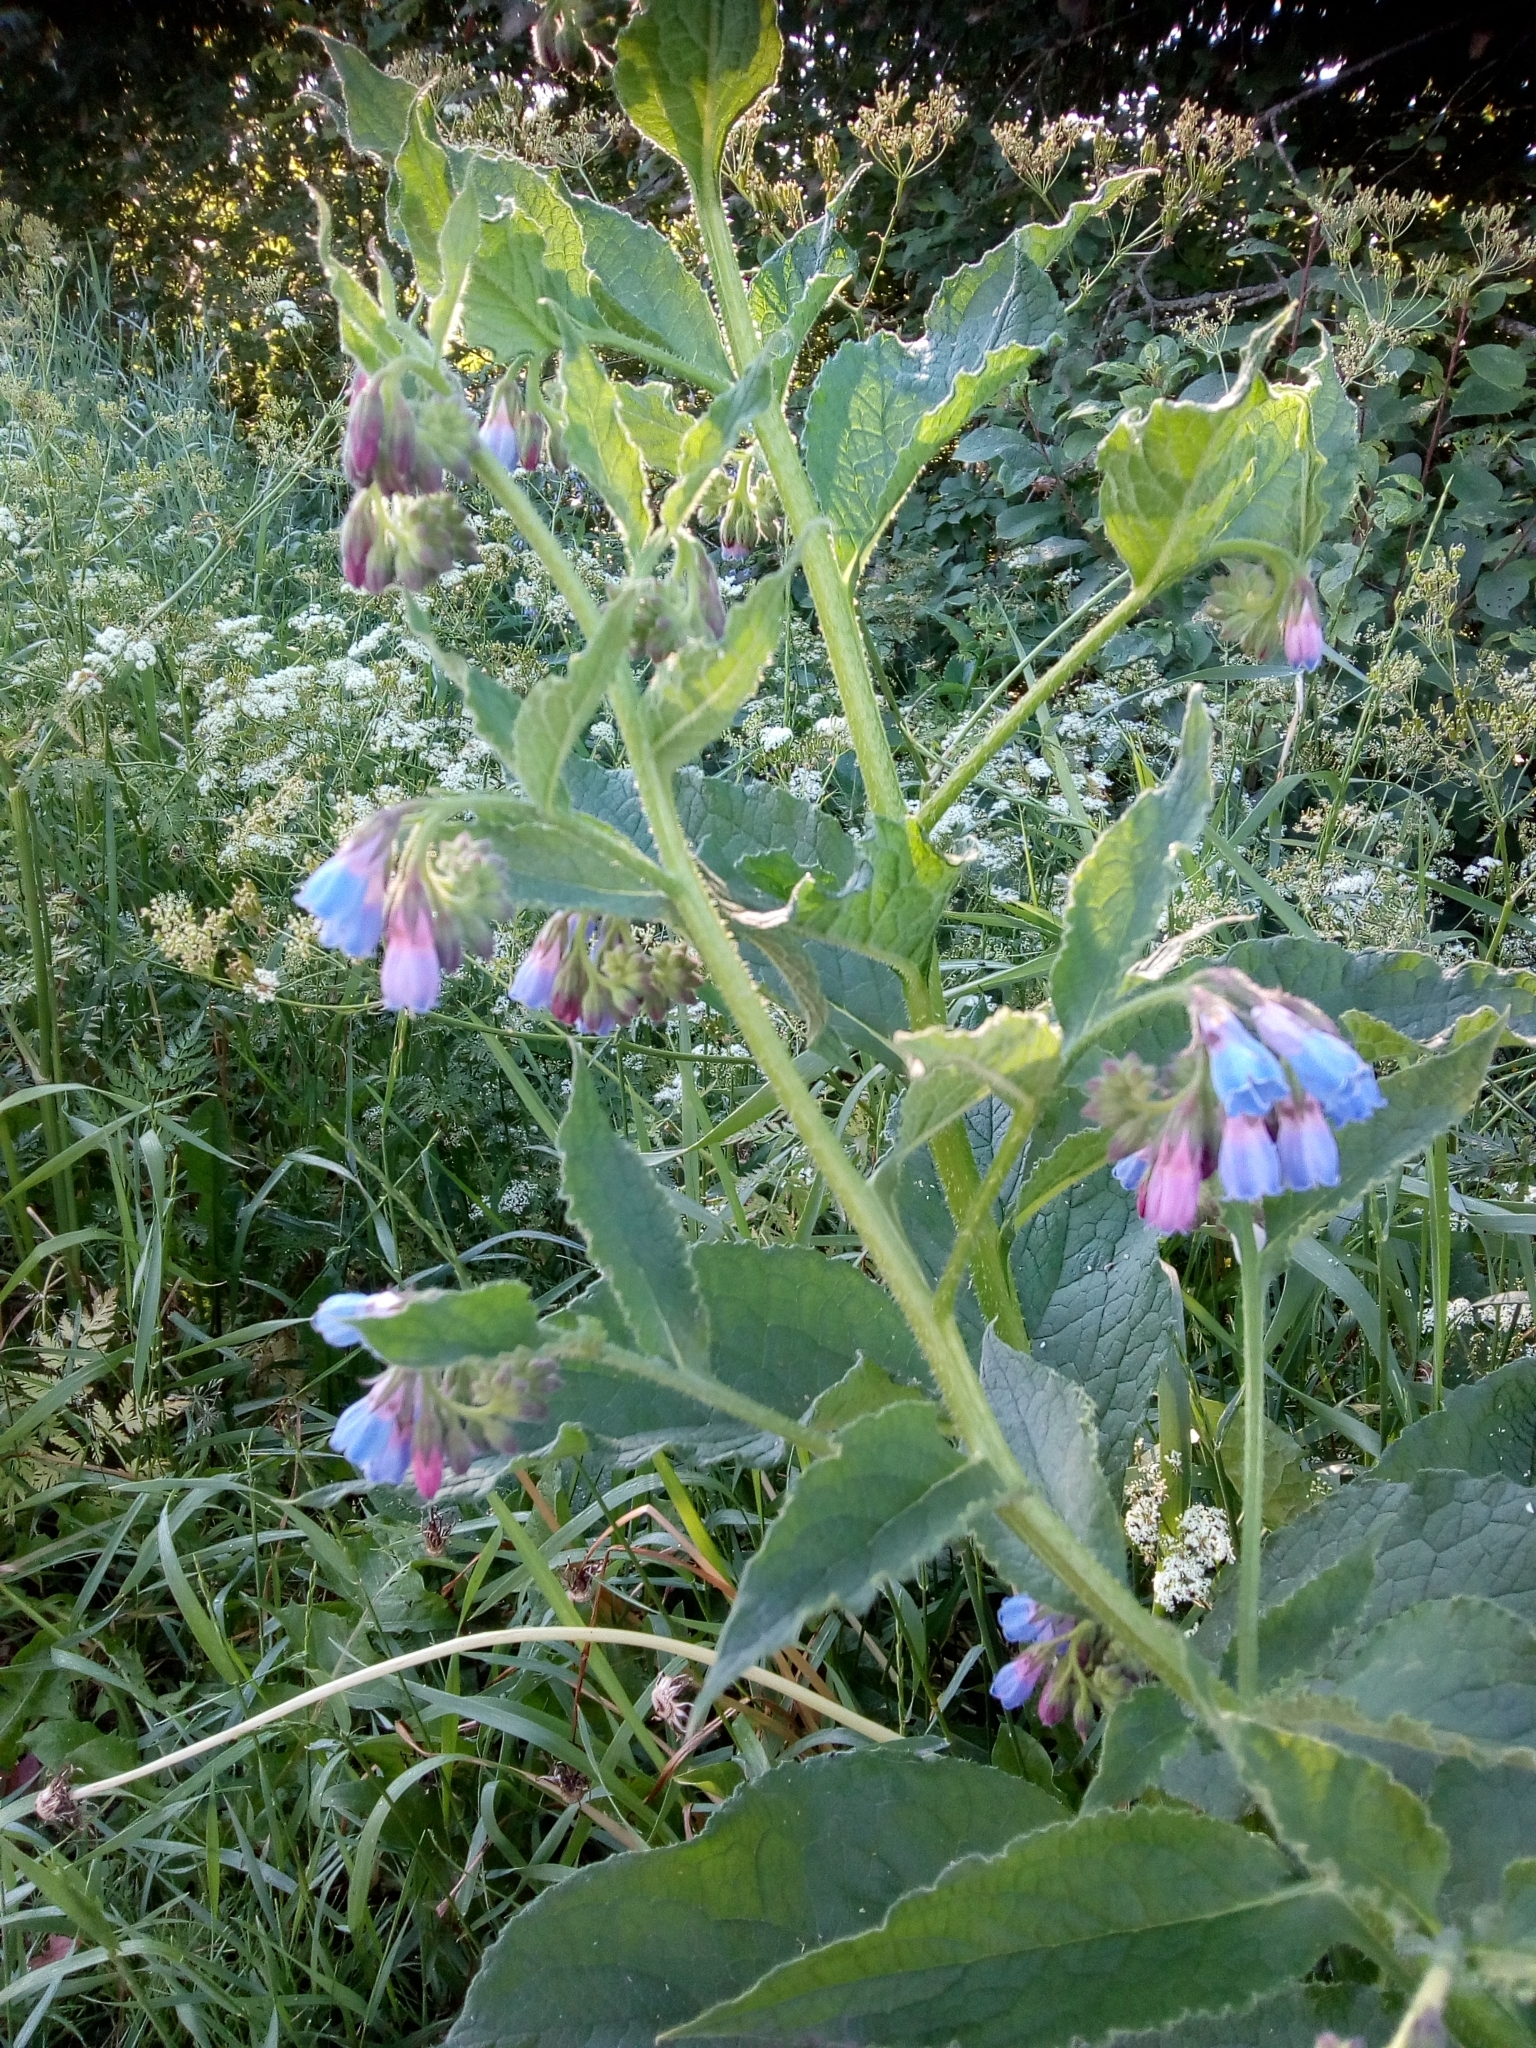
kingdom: Plantae
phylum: Tracheophyta
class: Magnoliopsida
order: Boraginales
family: Boraginaceae
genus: Symphytum
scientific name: Symphytum officinale
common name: Common comfrey
